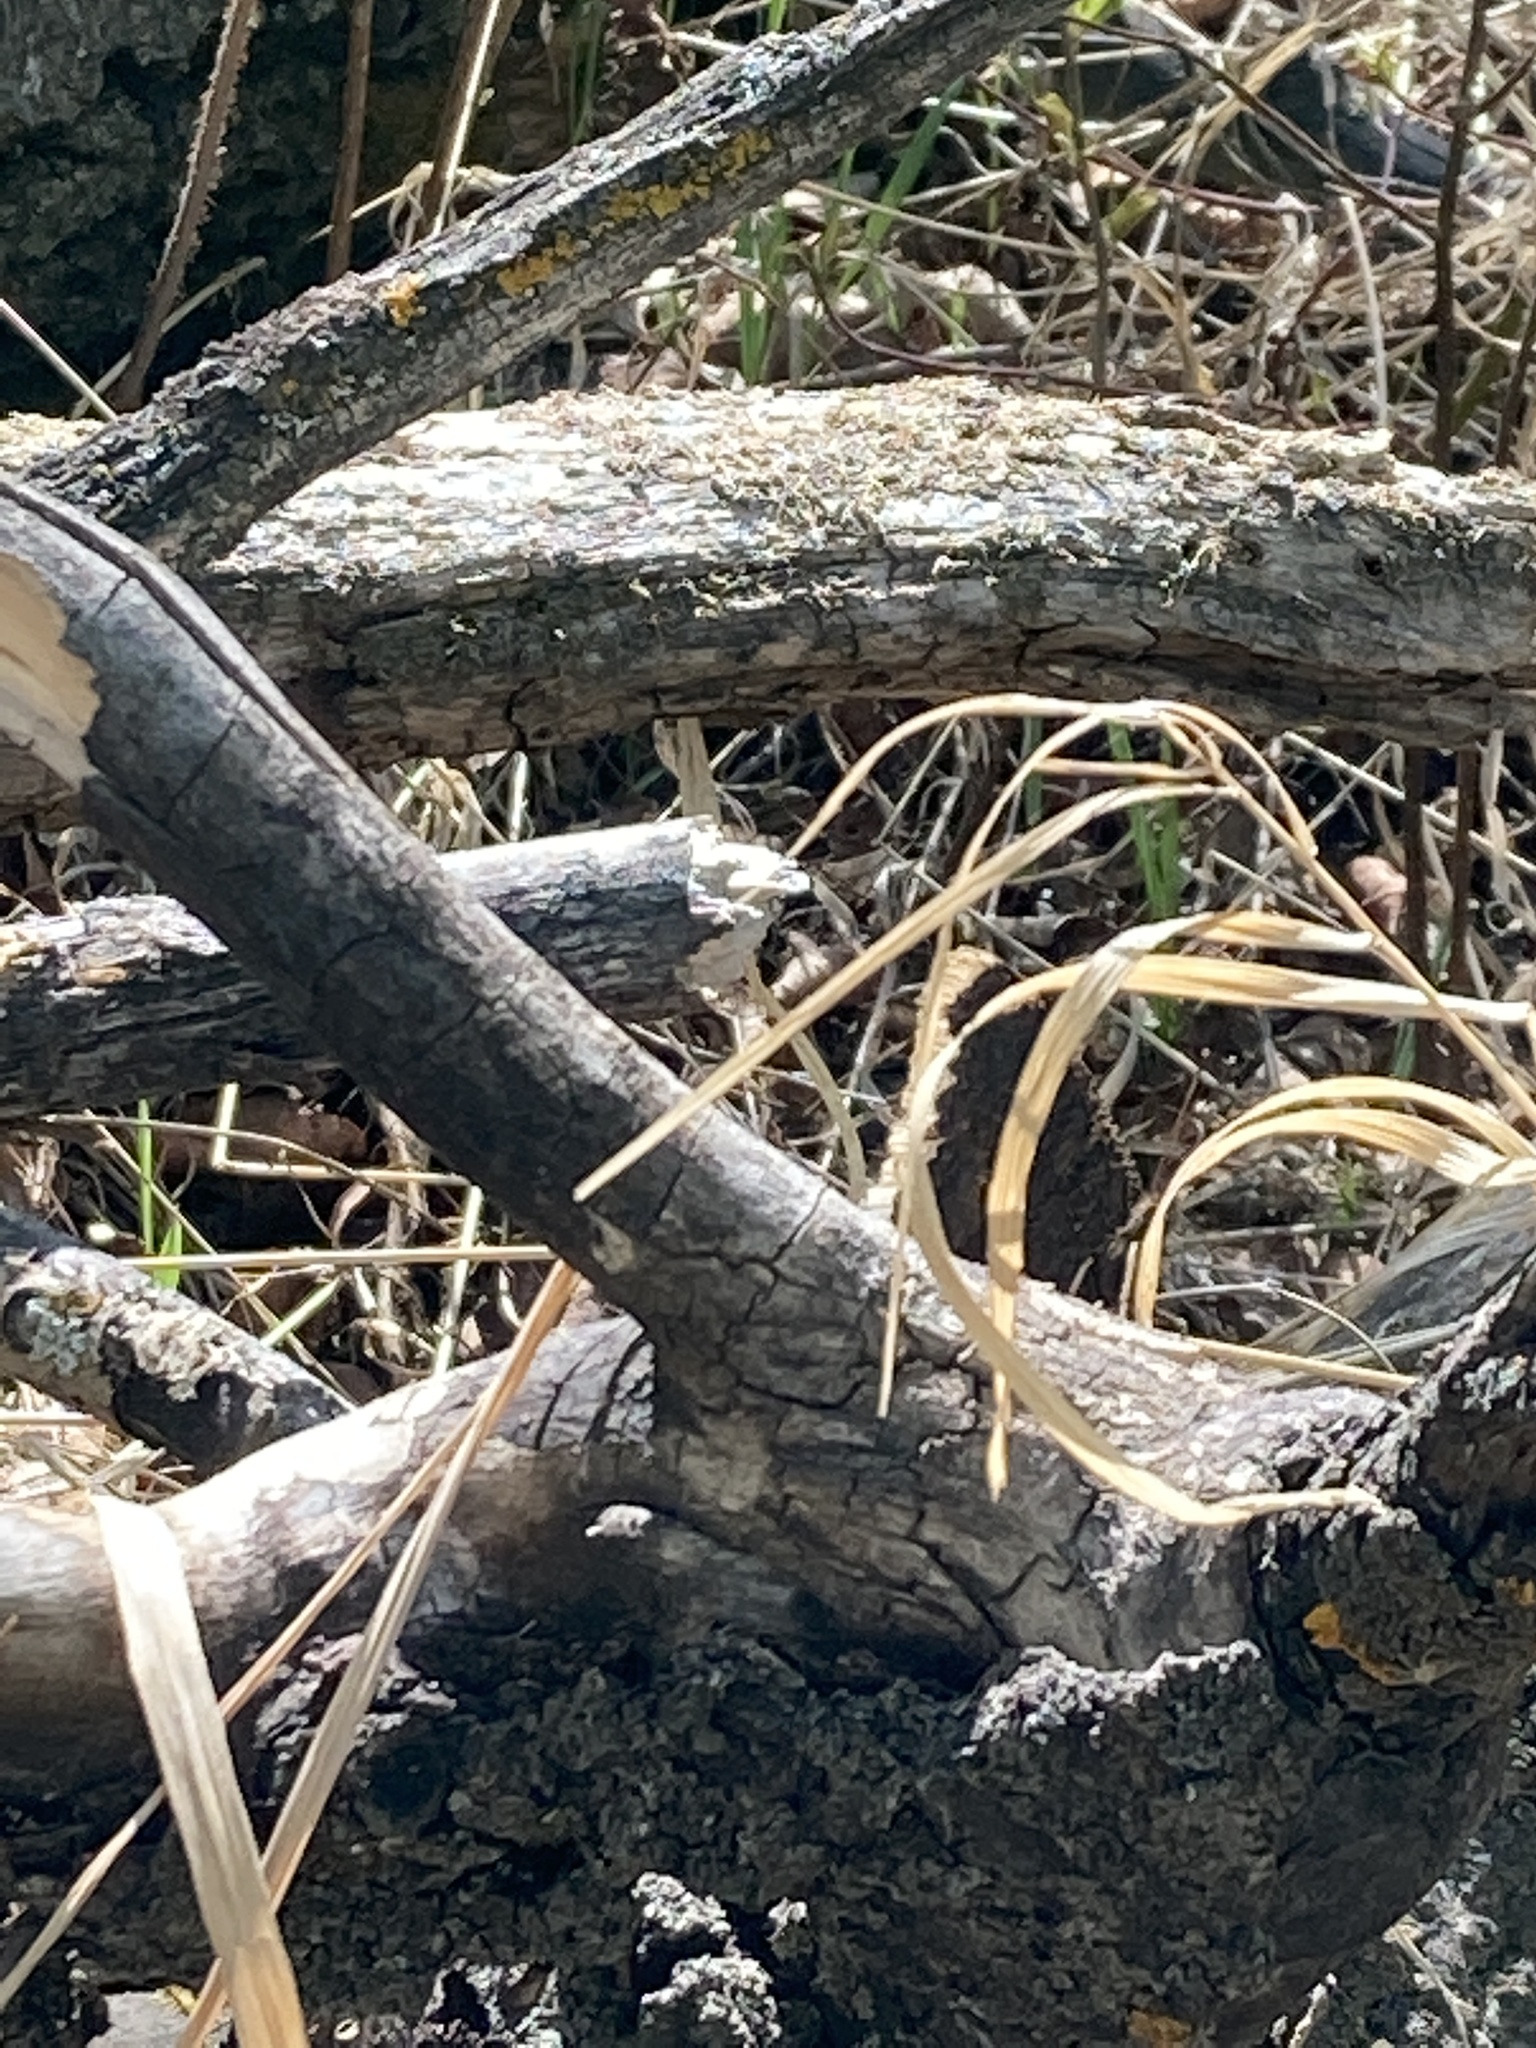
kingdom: Animalia
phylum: Arthropoda
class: Insecta
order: Lepidoptera
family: Nymphalidae
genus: Nymphalis
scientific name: Nymphalis antiopa
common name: Camberwell beauty
